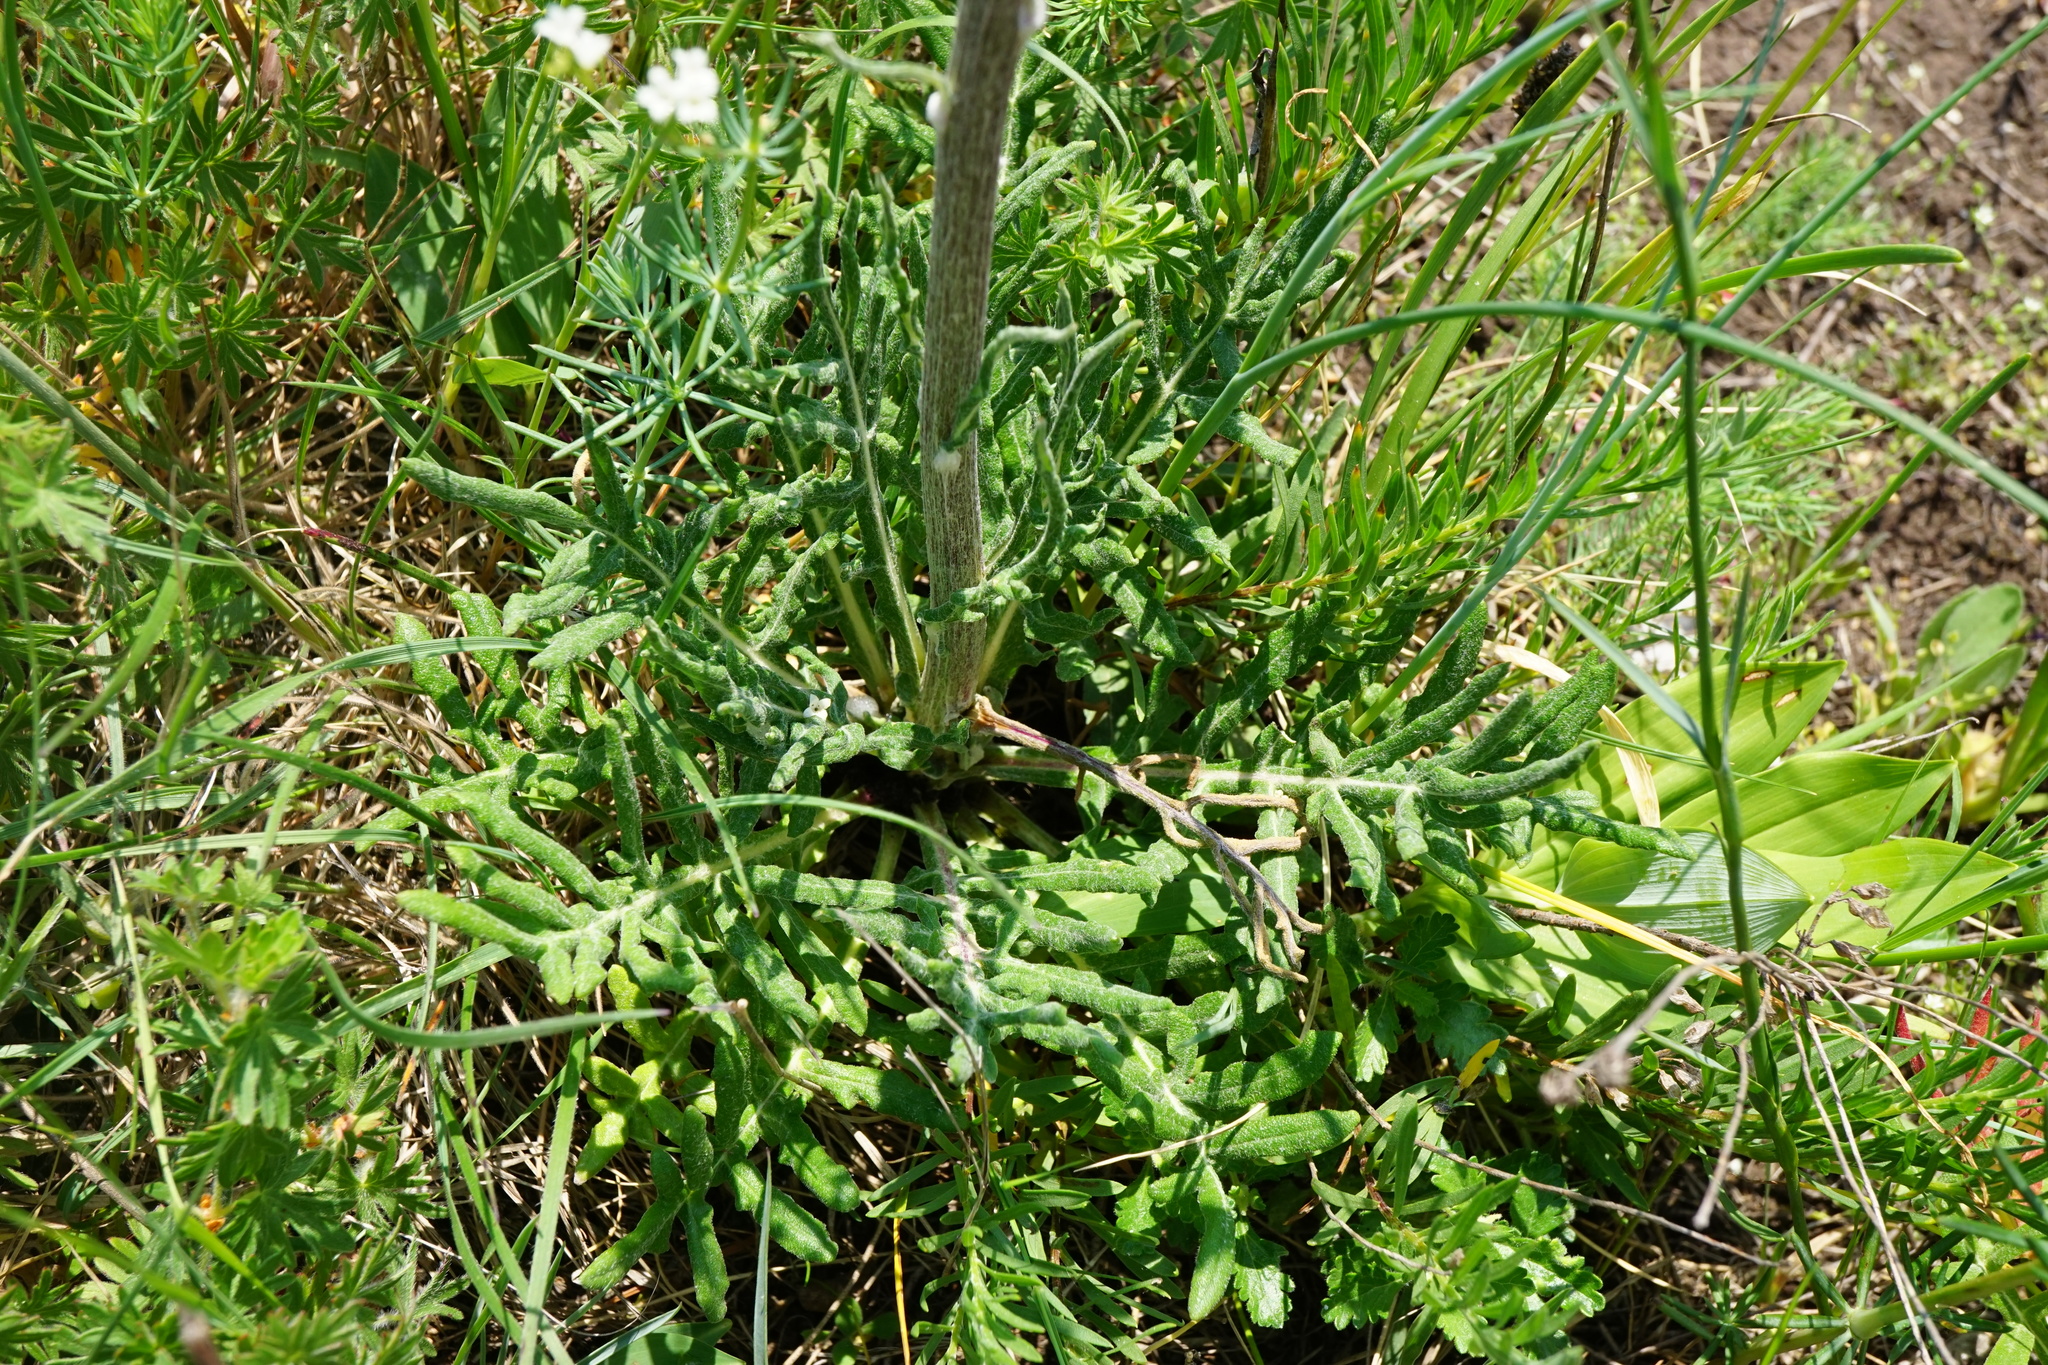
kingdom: Plantae
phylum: Tracheophyta
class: Magnoliopsida
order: Asterales
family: Asteraceae
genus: Jurinea
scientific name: Jurinea mollis
